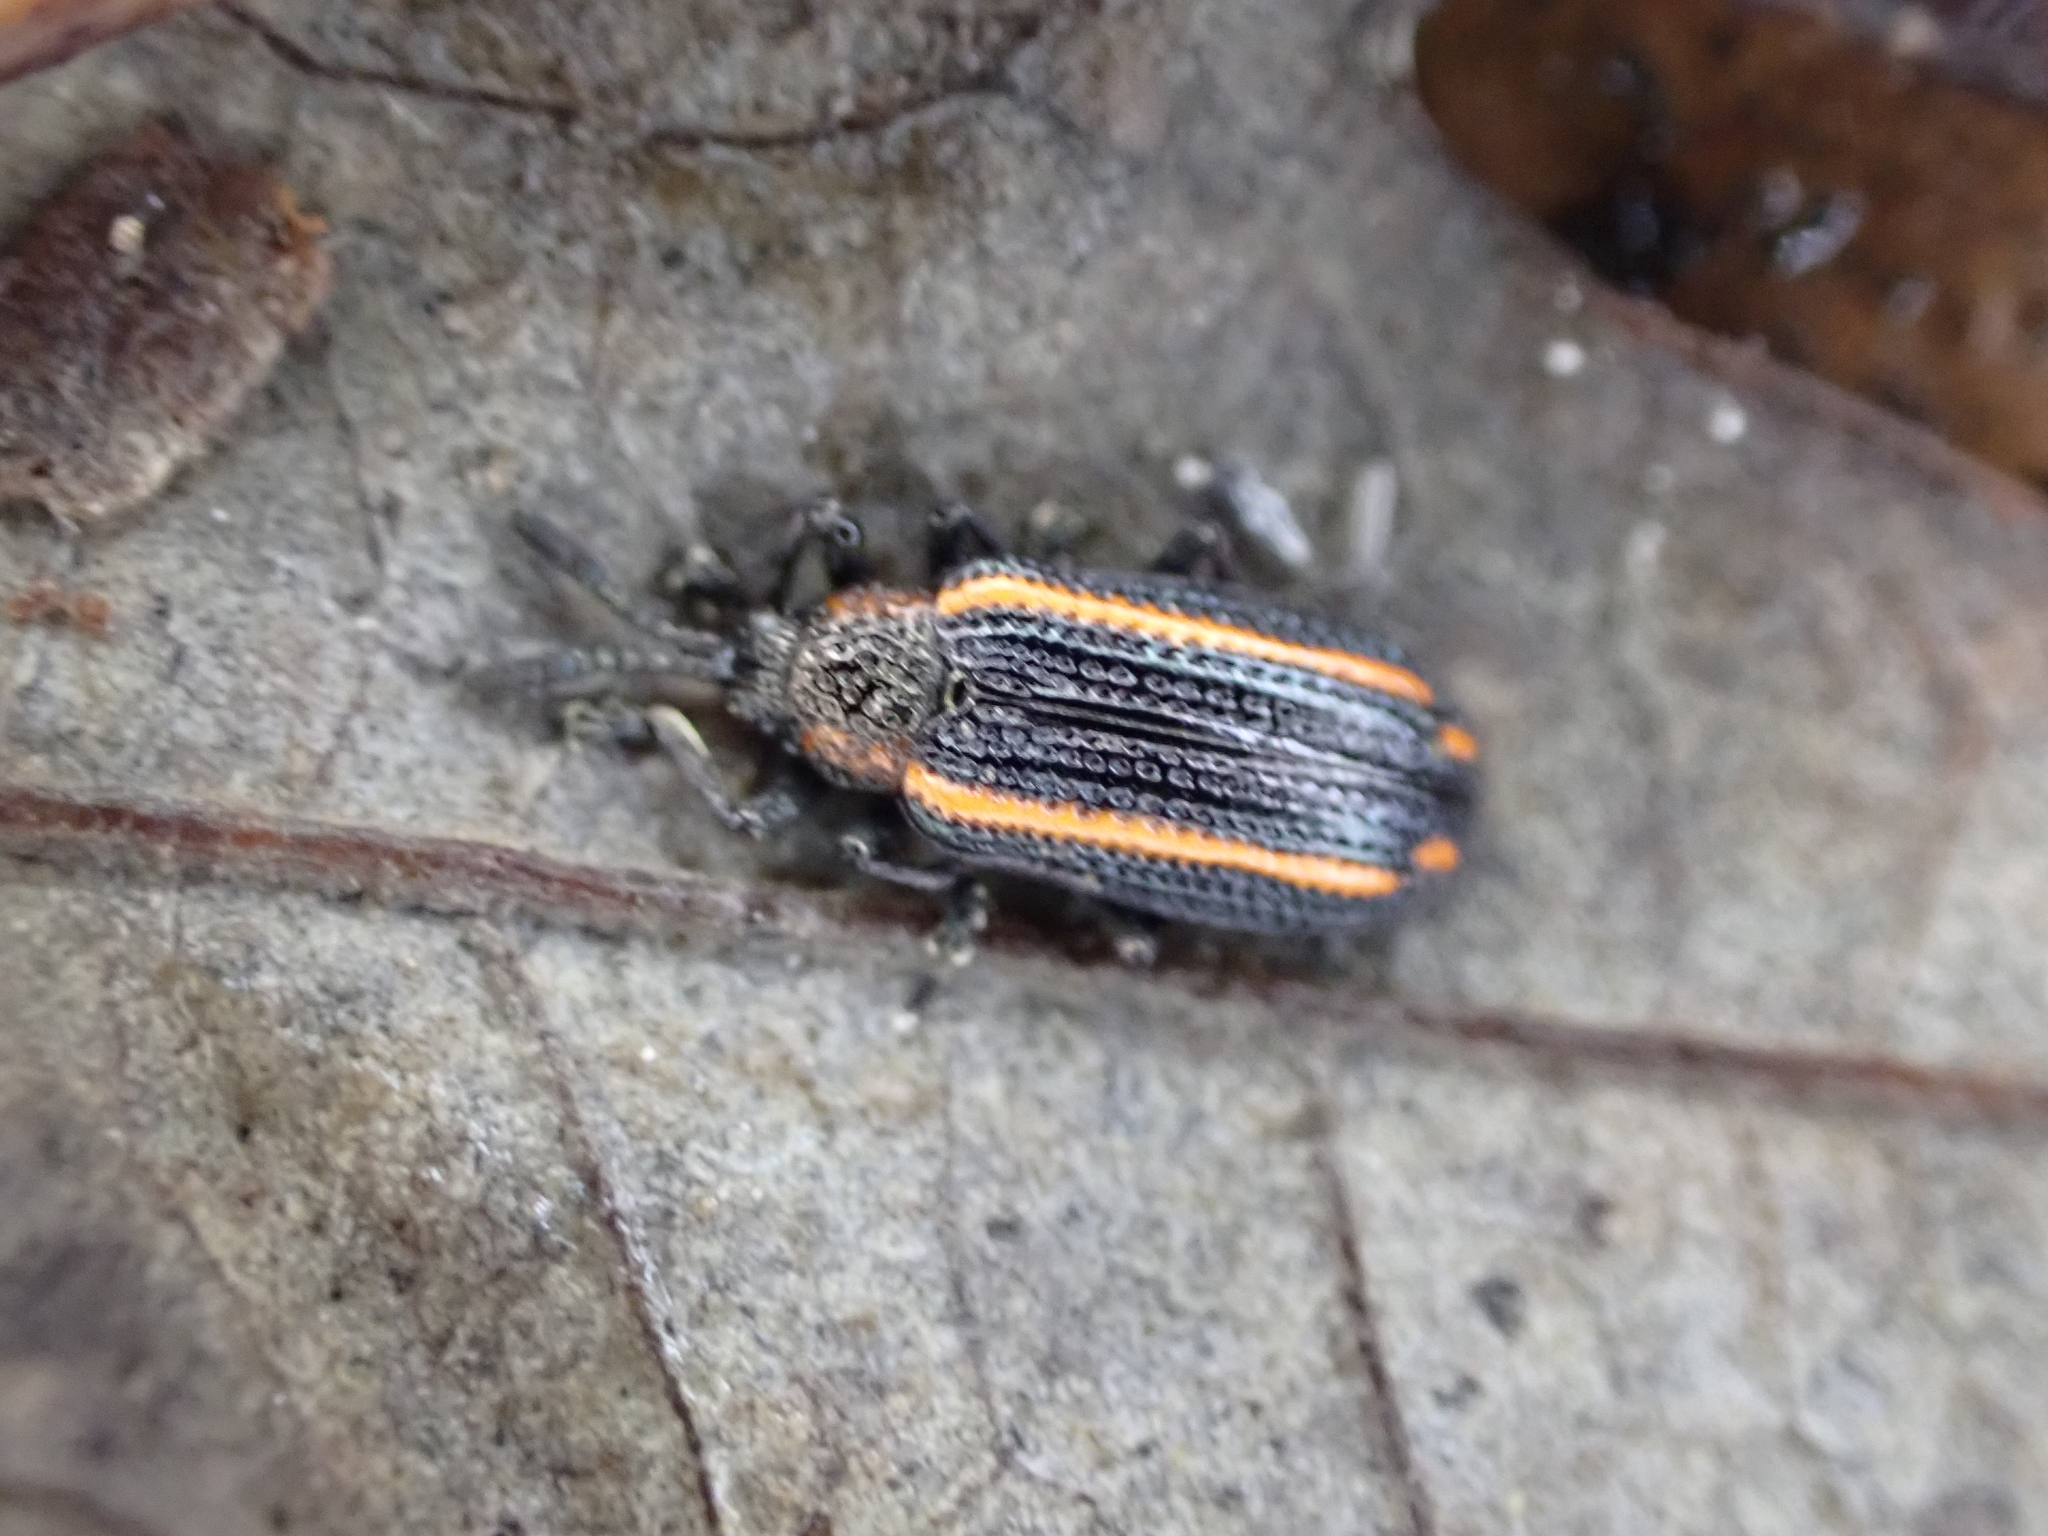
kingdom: Animalia
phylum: Arthropoda
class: Insecta
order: Coleoptera
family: Chrysomelidae
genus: Microrhopala
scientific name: Microrhopala xerene
